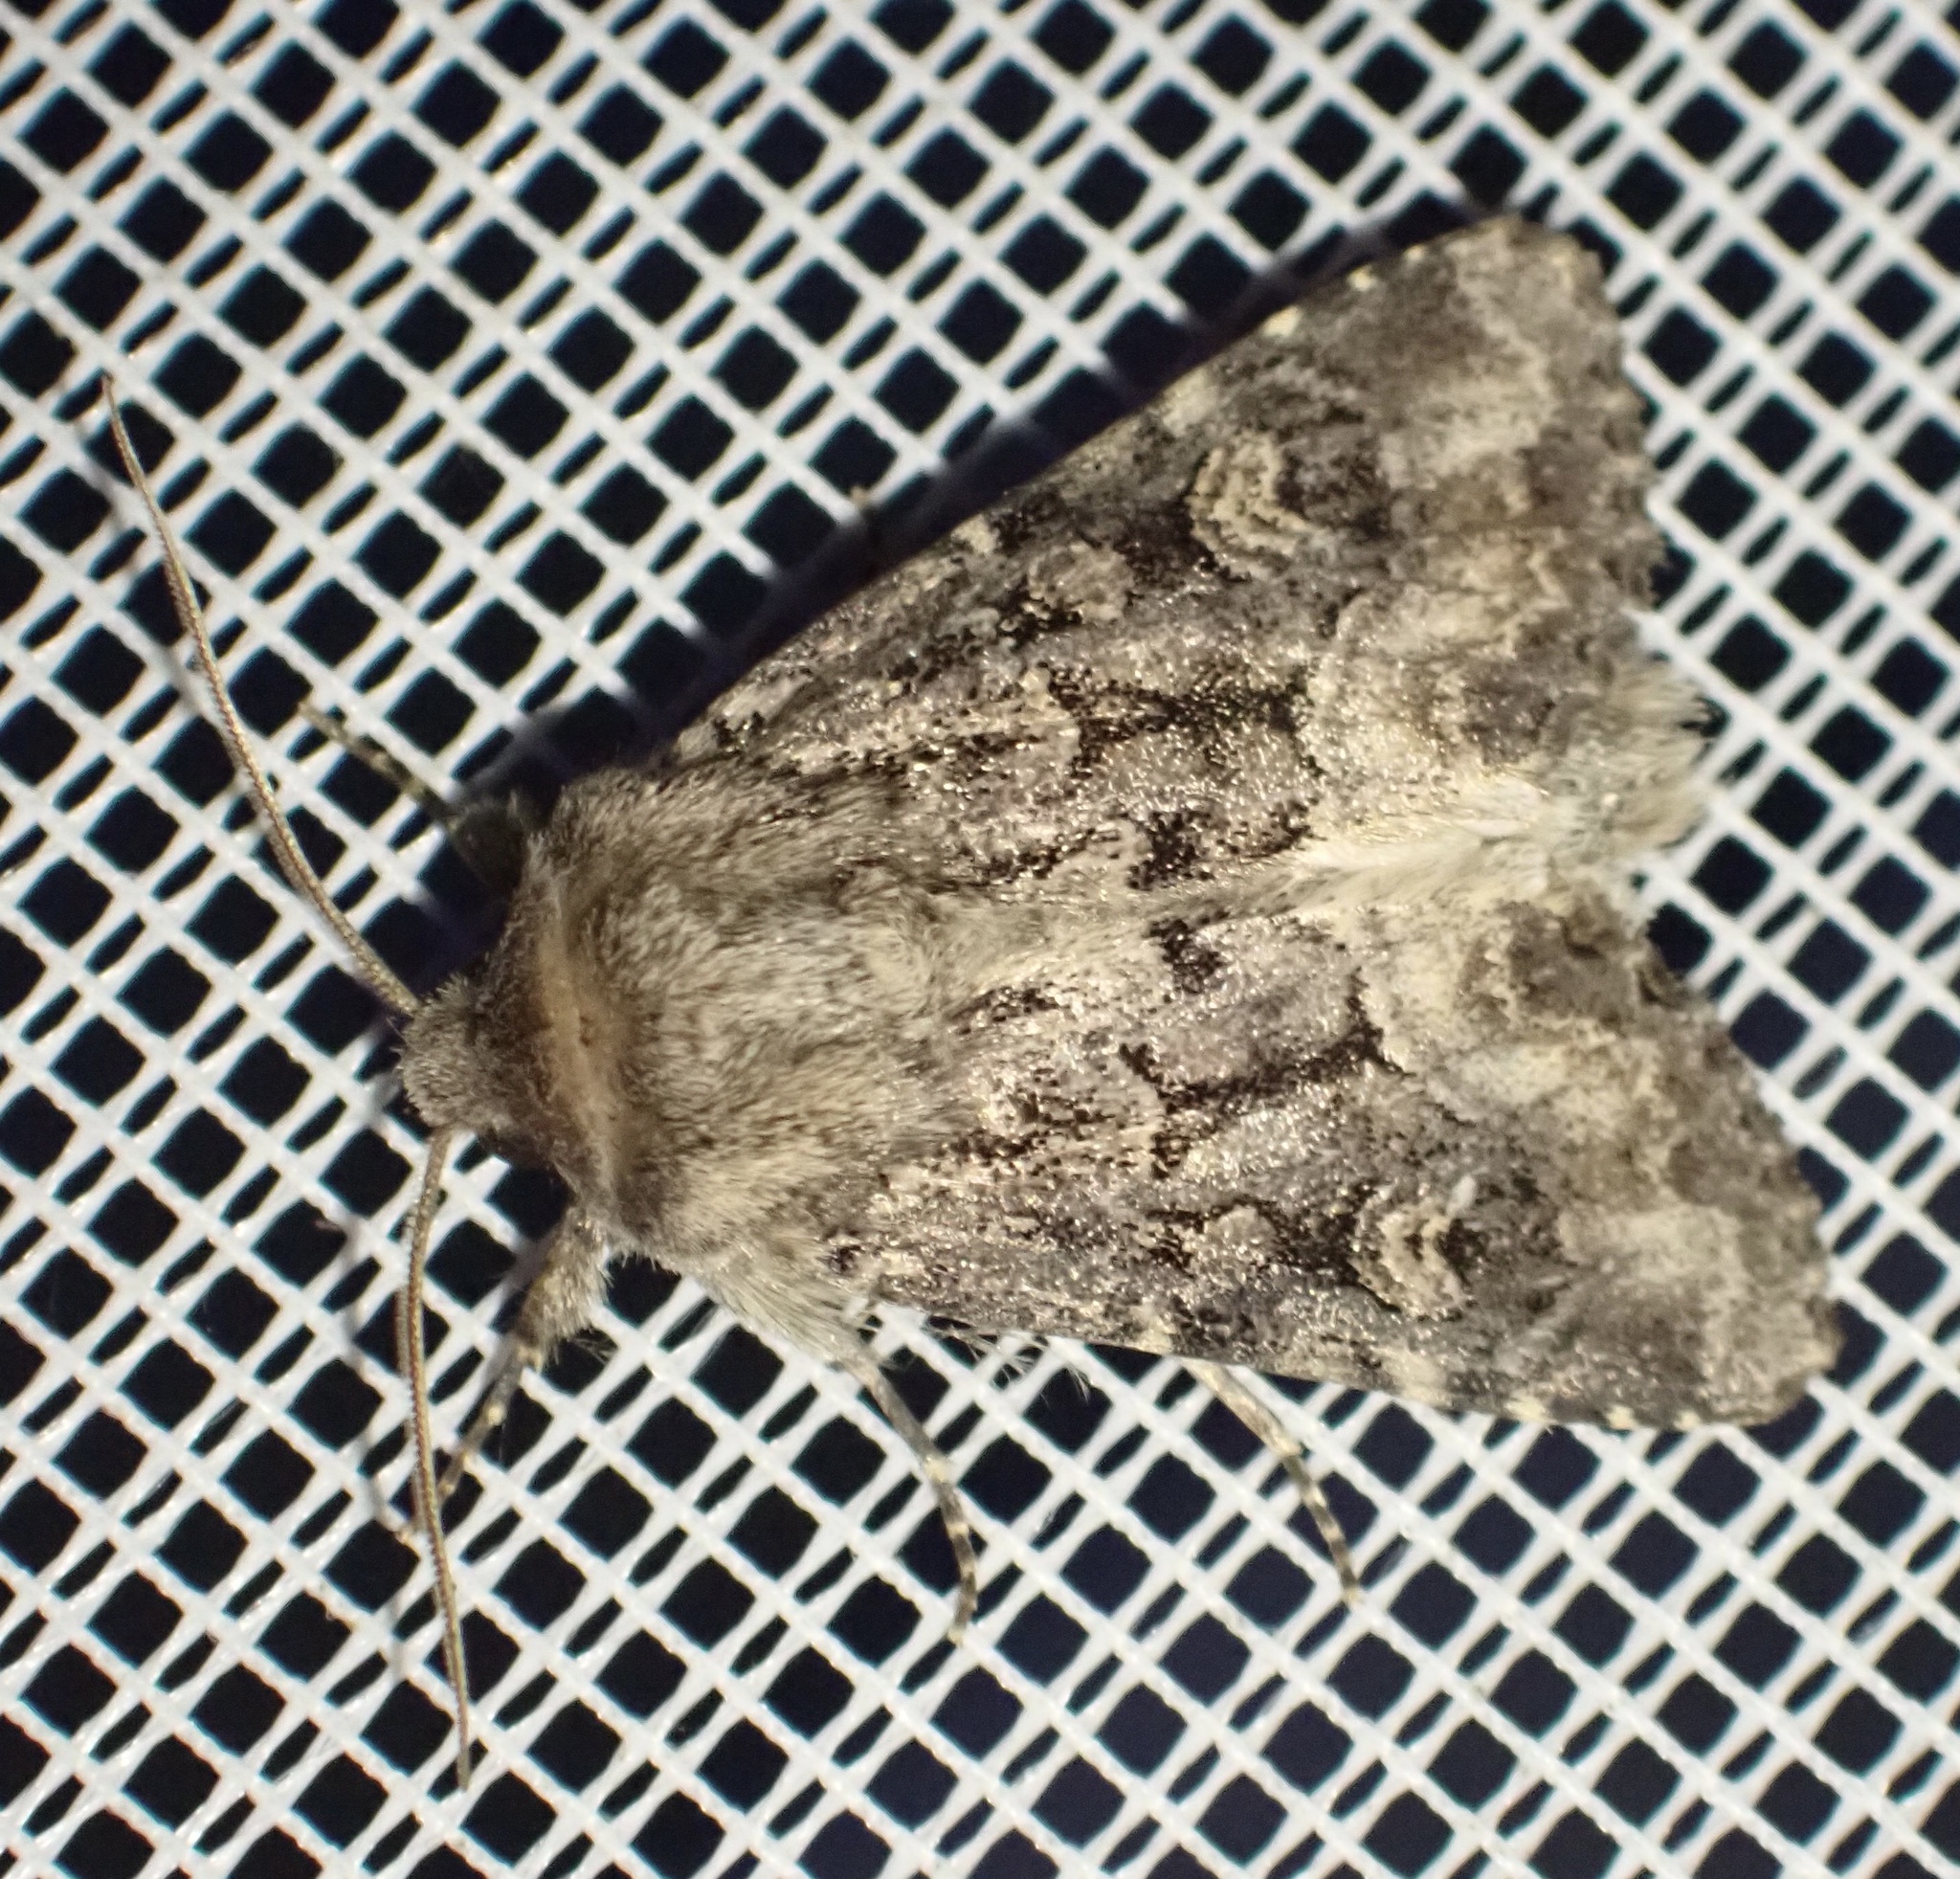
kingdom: Animalia
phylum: Arthropoda
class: Insecta
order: Lepidoptera
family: Noctuidae
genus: Luperina
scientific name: Luperina testacea
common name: Flounced rustic
